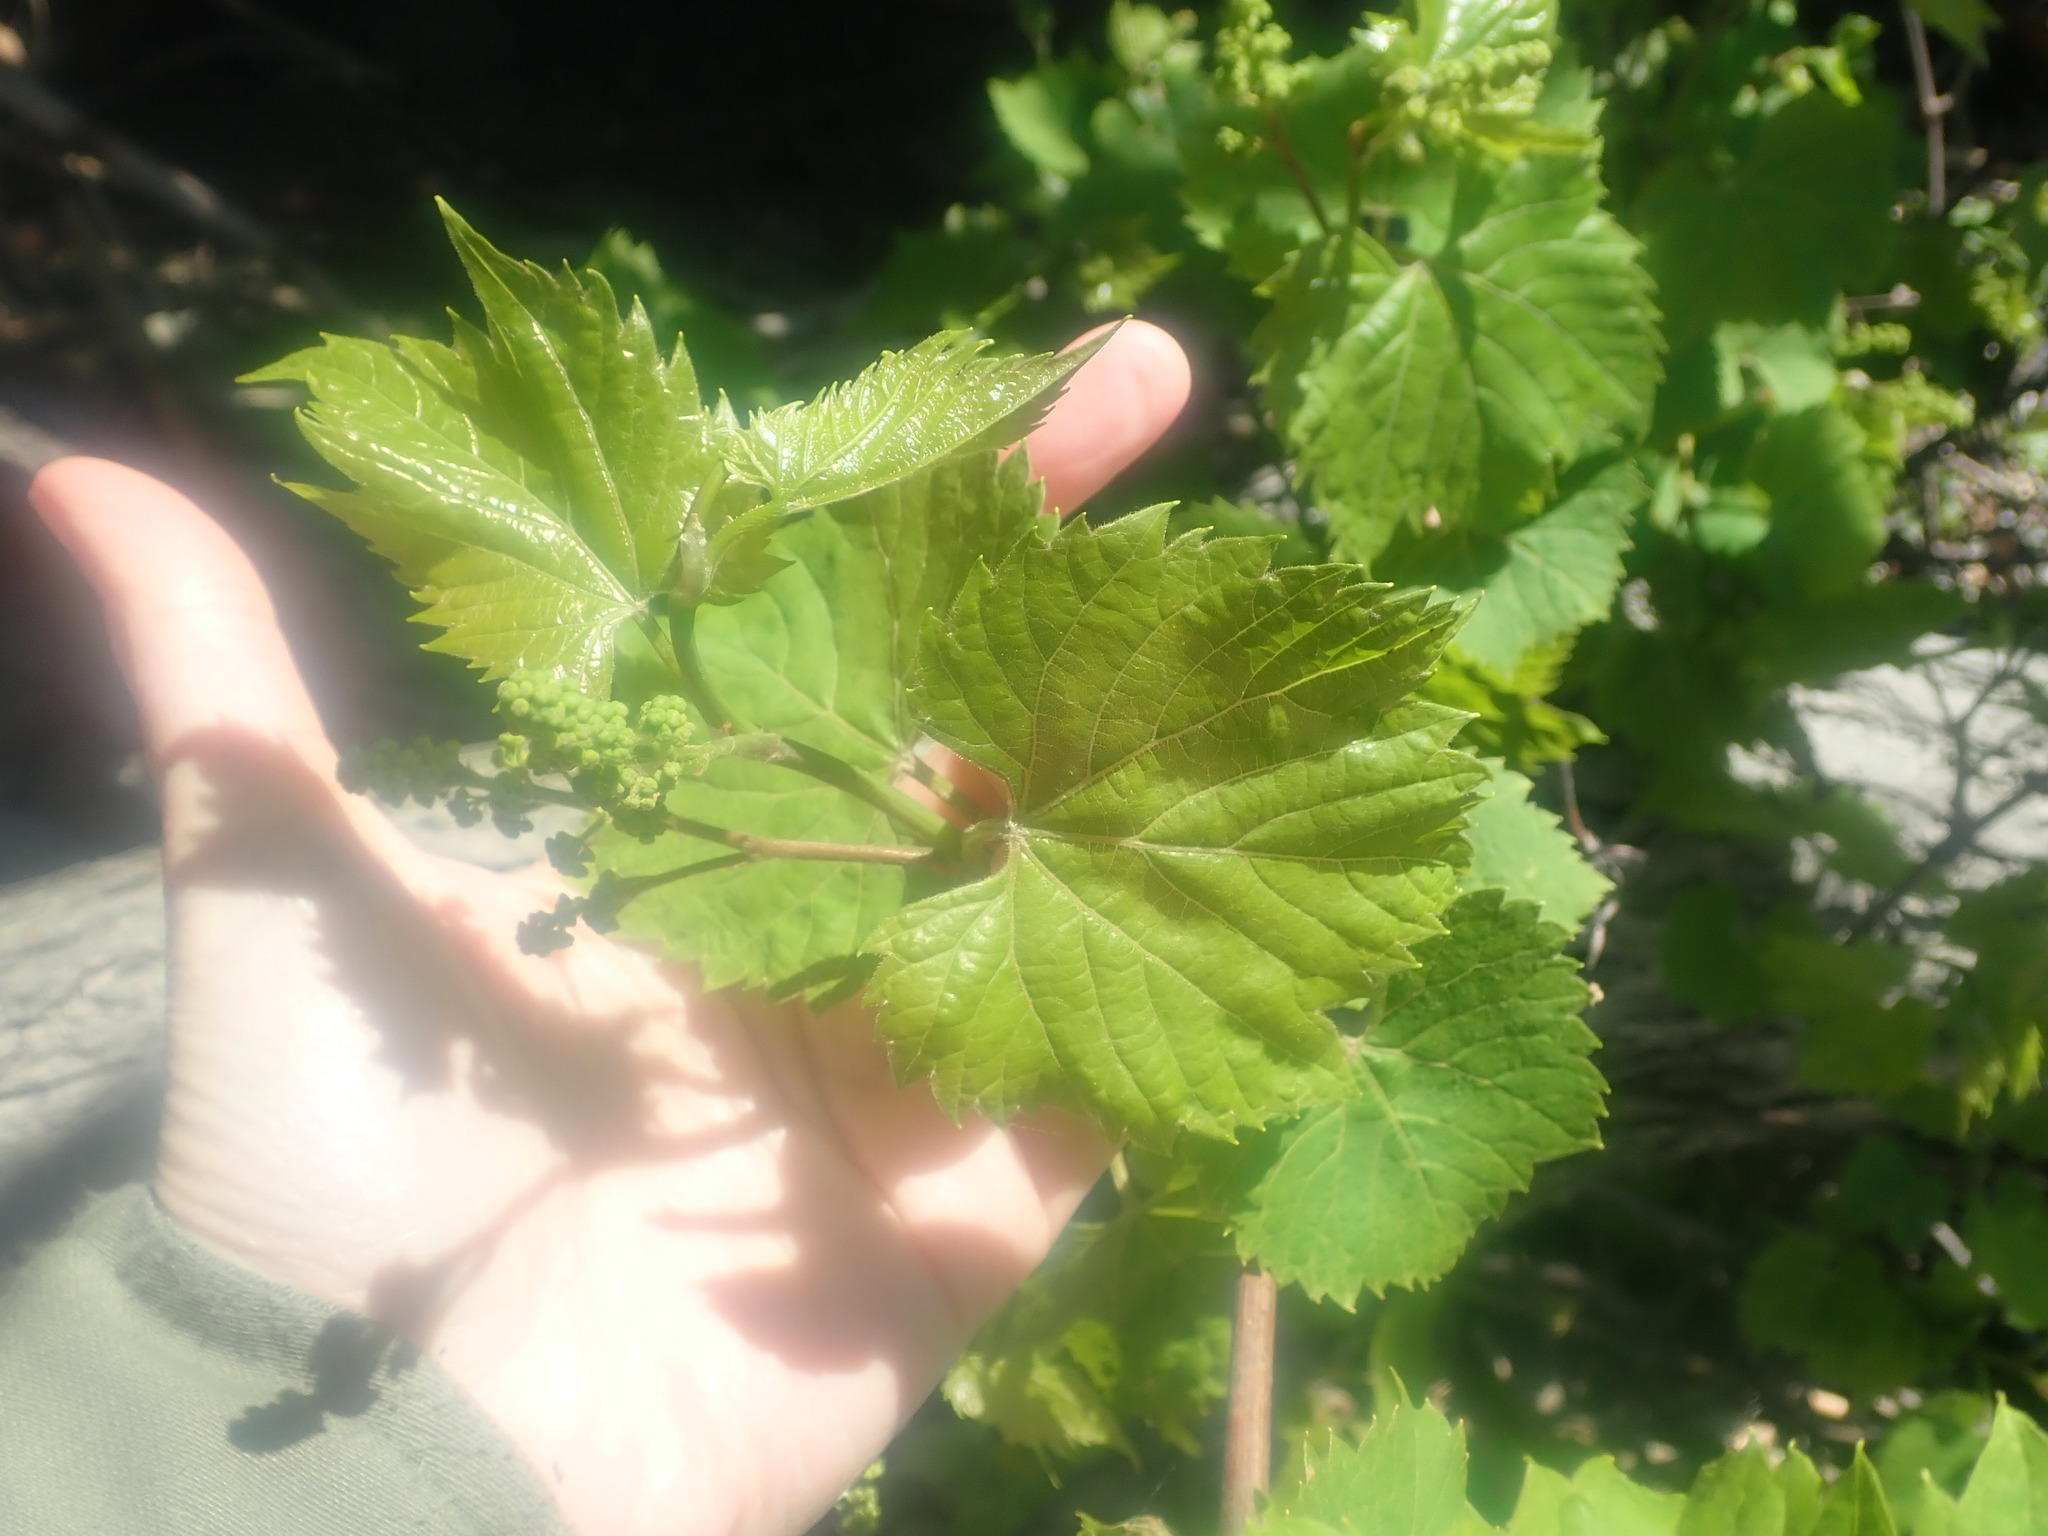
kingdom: Plantae
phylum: Tracheophyta
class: Magnoliopsida
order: Vitales
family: Vitaceae
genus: Vitis
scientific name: Vitis riparia
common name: Frost grape
